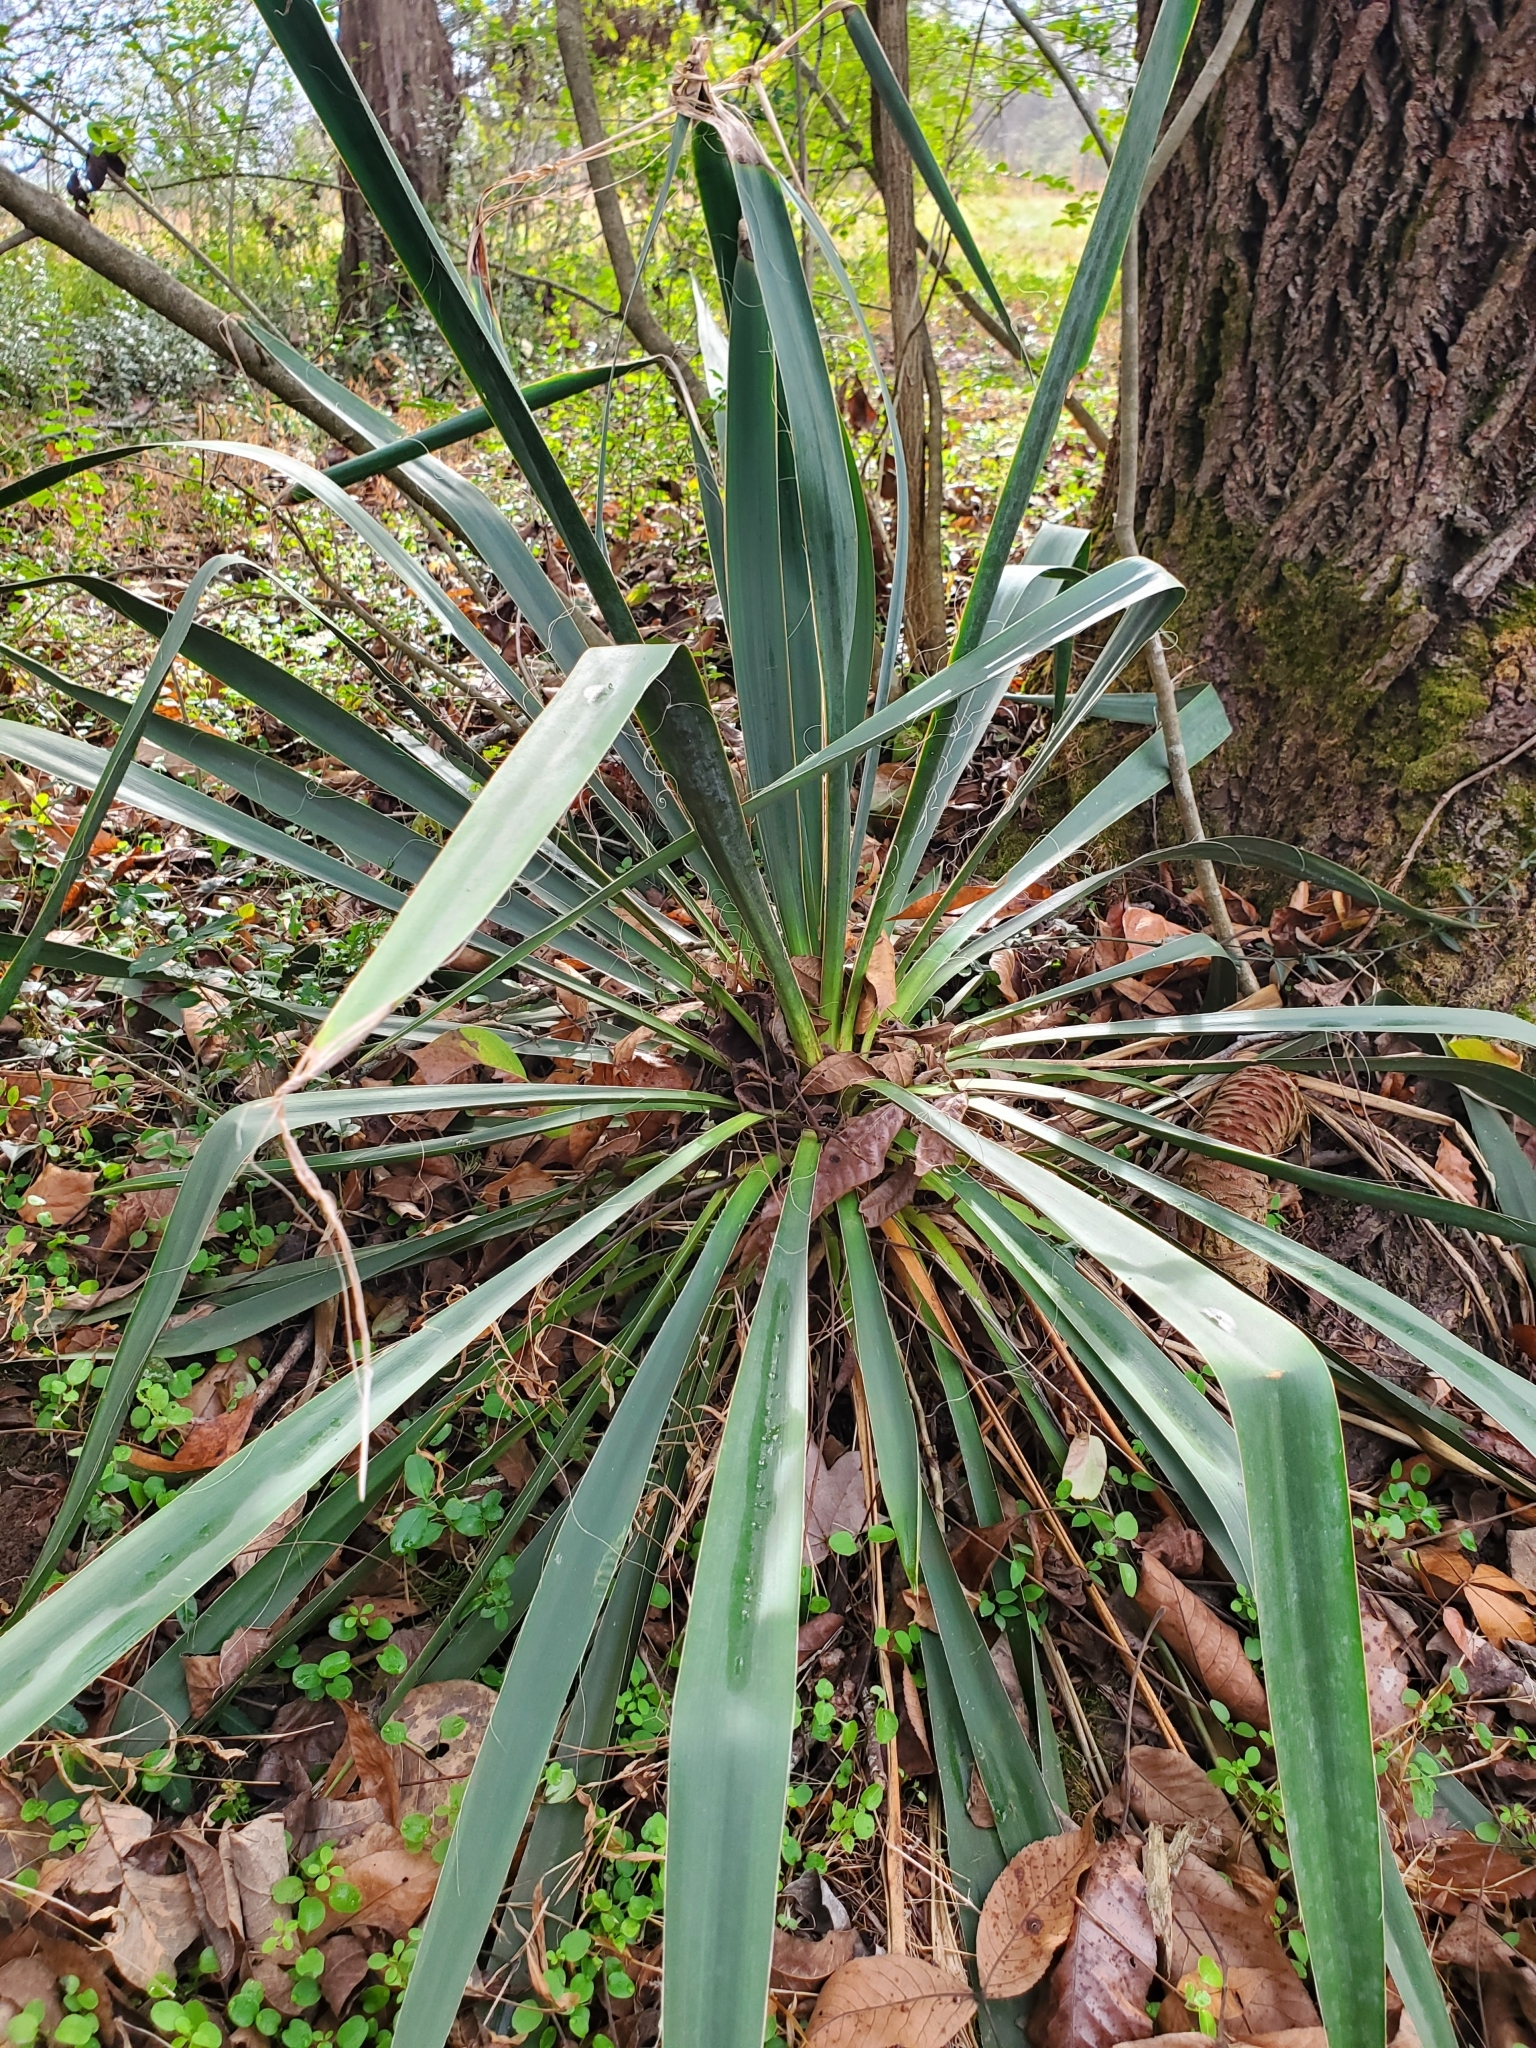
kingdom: Plantae
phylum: Tracheophyta
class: Liliopsida
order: Asparagales
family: Asparagaceae
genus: Yucca
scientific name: Yucca filamentosa
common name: Adam's-needle
